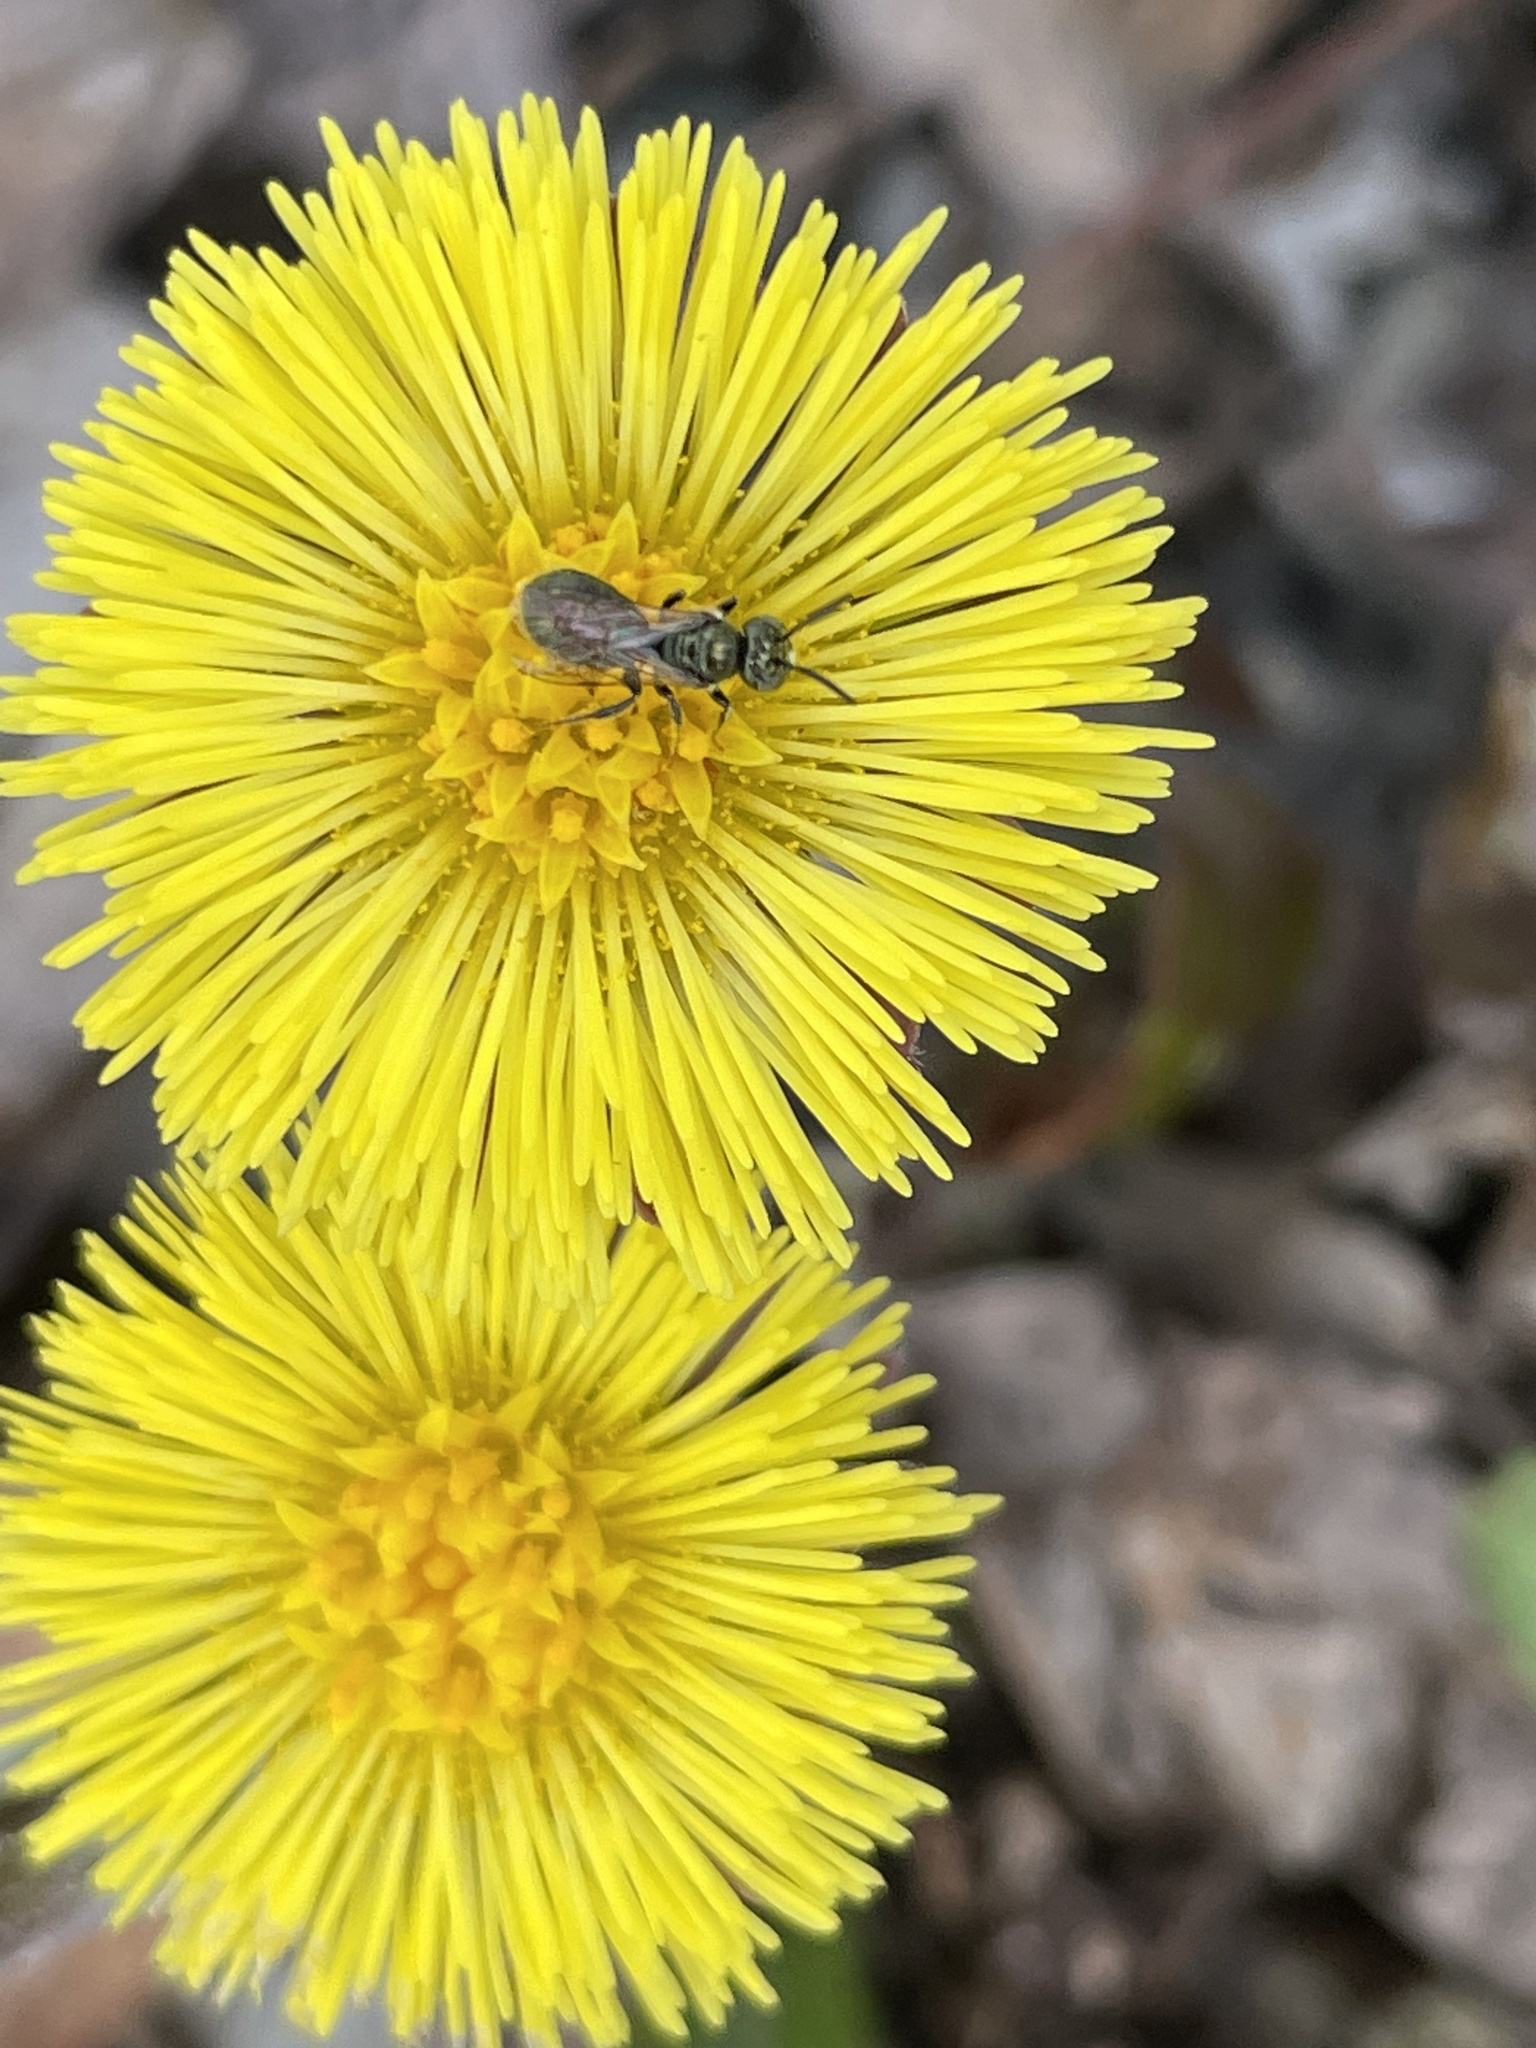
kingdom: Plantae
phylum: Tracheophyta
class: Magnoliopsida
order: Asterales
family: Asteraceae
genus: Tussilago
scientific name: Tussilago farfara
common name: Coltsfoot
